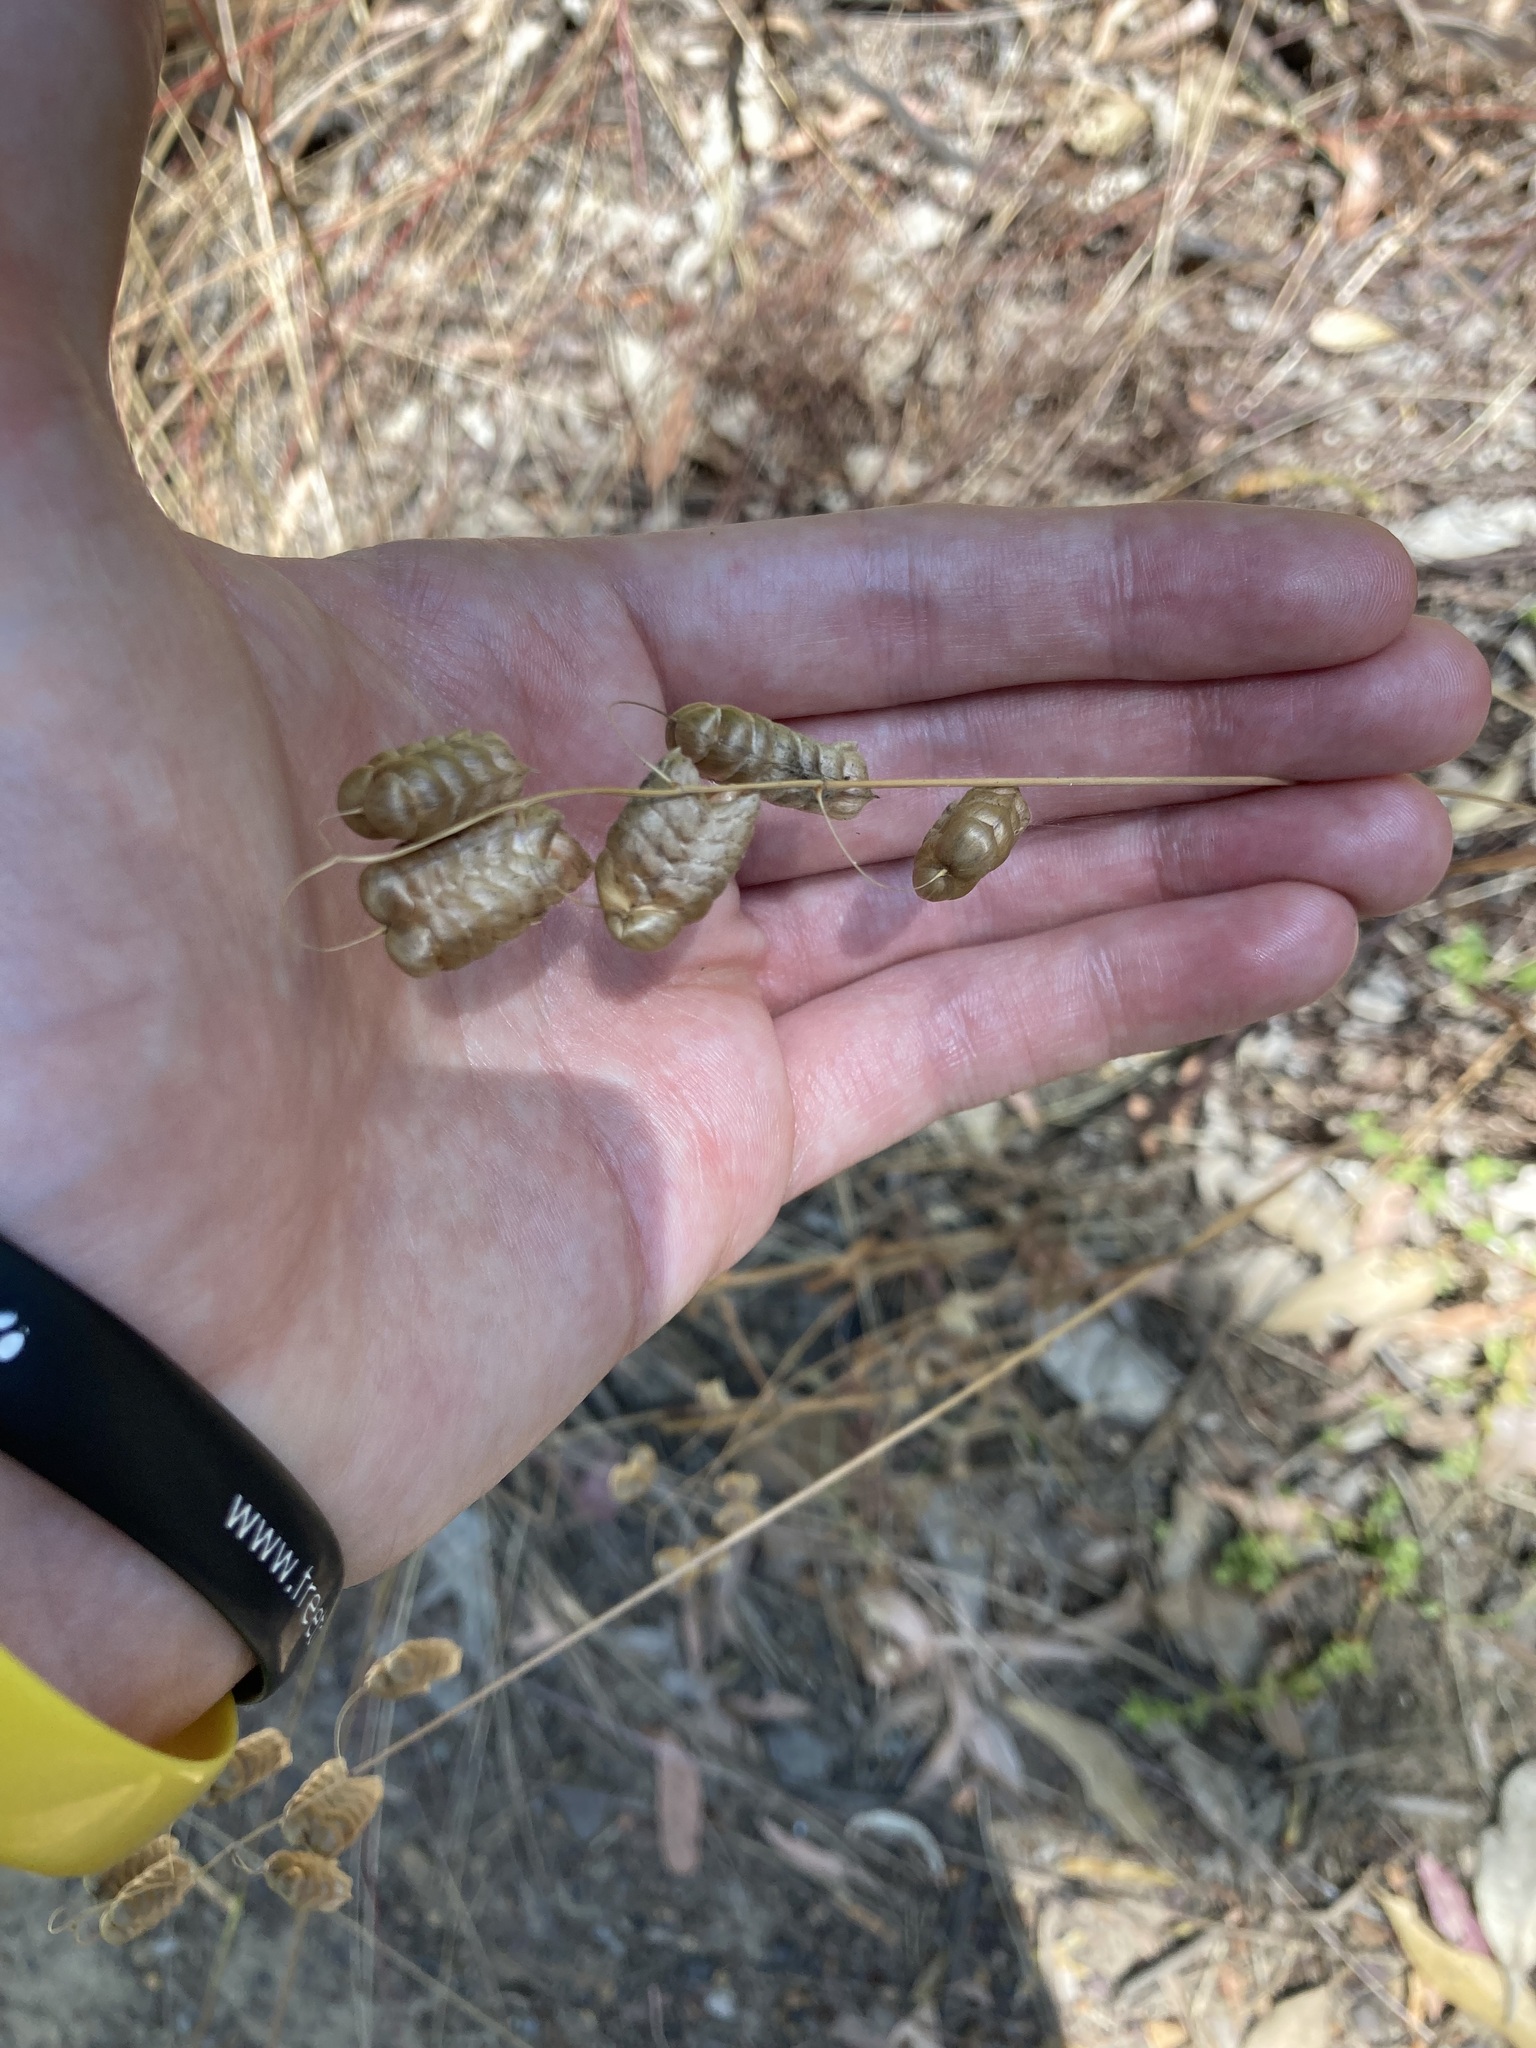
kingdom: Plantae
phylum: Tracheophyta
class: Liliopsida
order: Poales
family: Poaceae
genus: Briza
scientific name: Briza maxima
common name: Big quakinggrass
